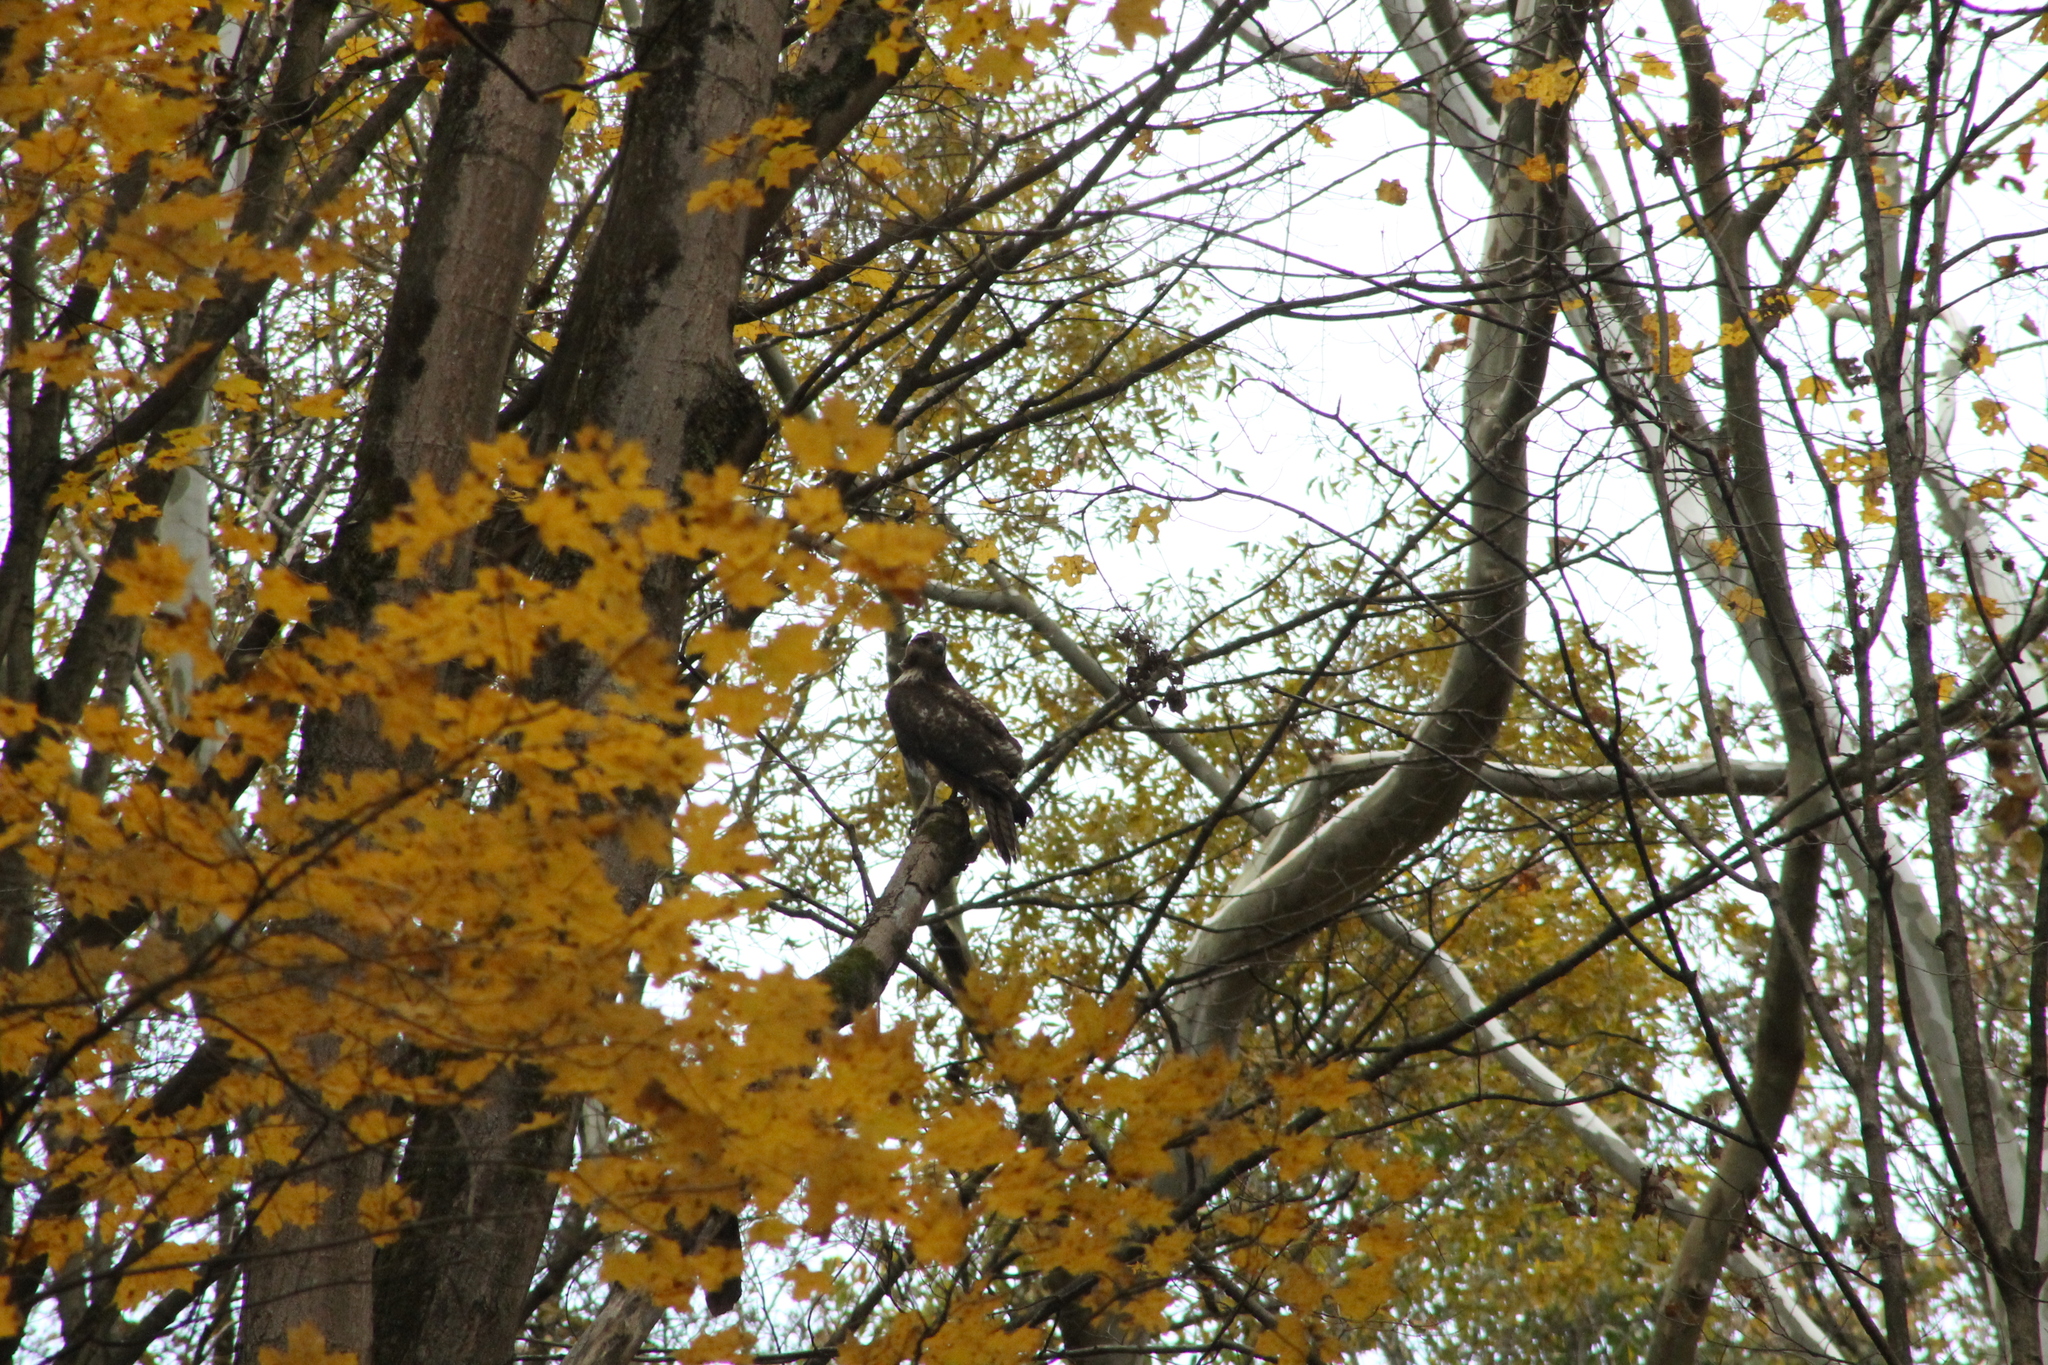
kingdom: Animalia
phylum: Chordata
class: Aves
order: Accipitriformes
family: Accipitridae
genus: Buteo
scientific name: Buteo jamaicensis
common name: Red-tailed hawk
